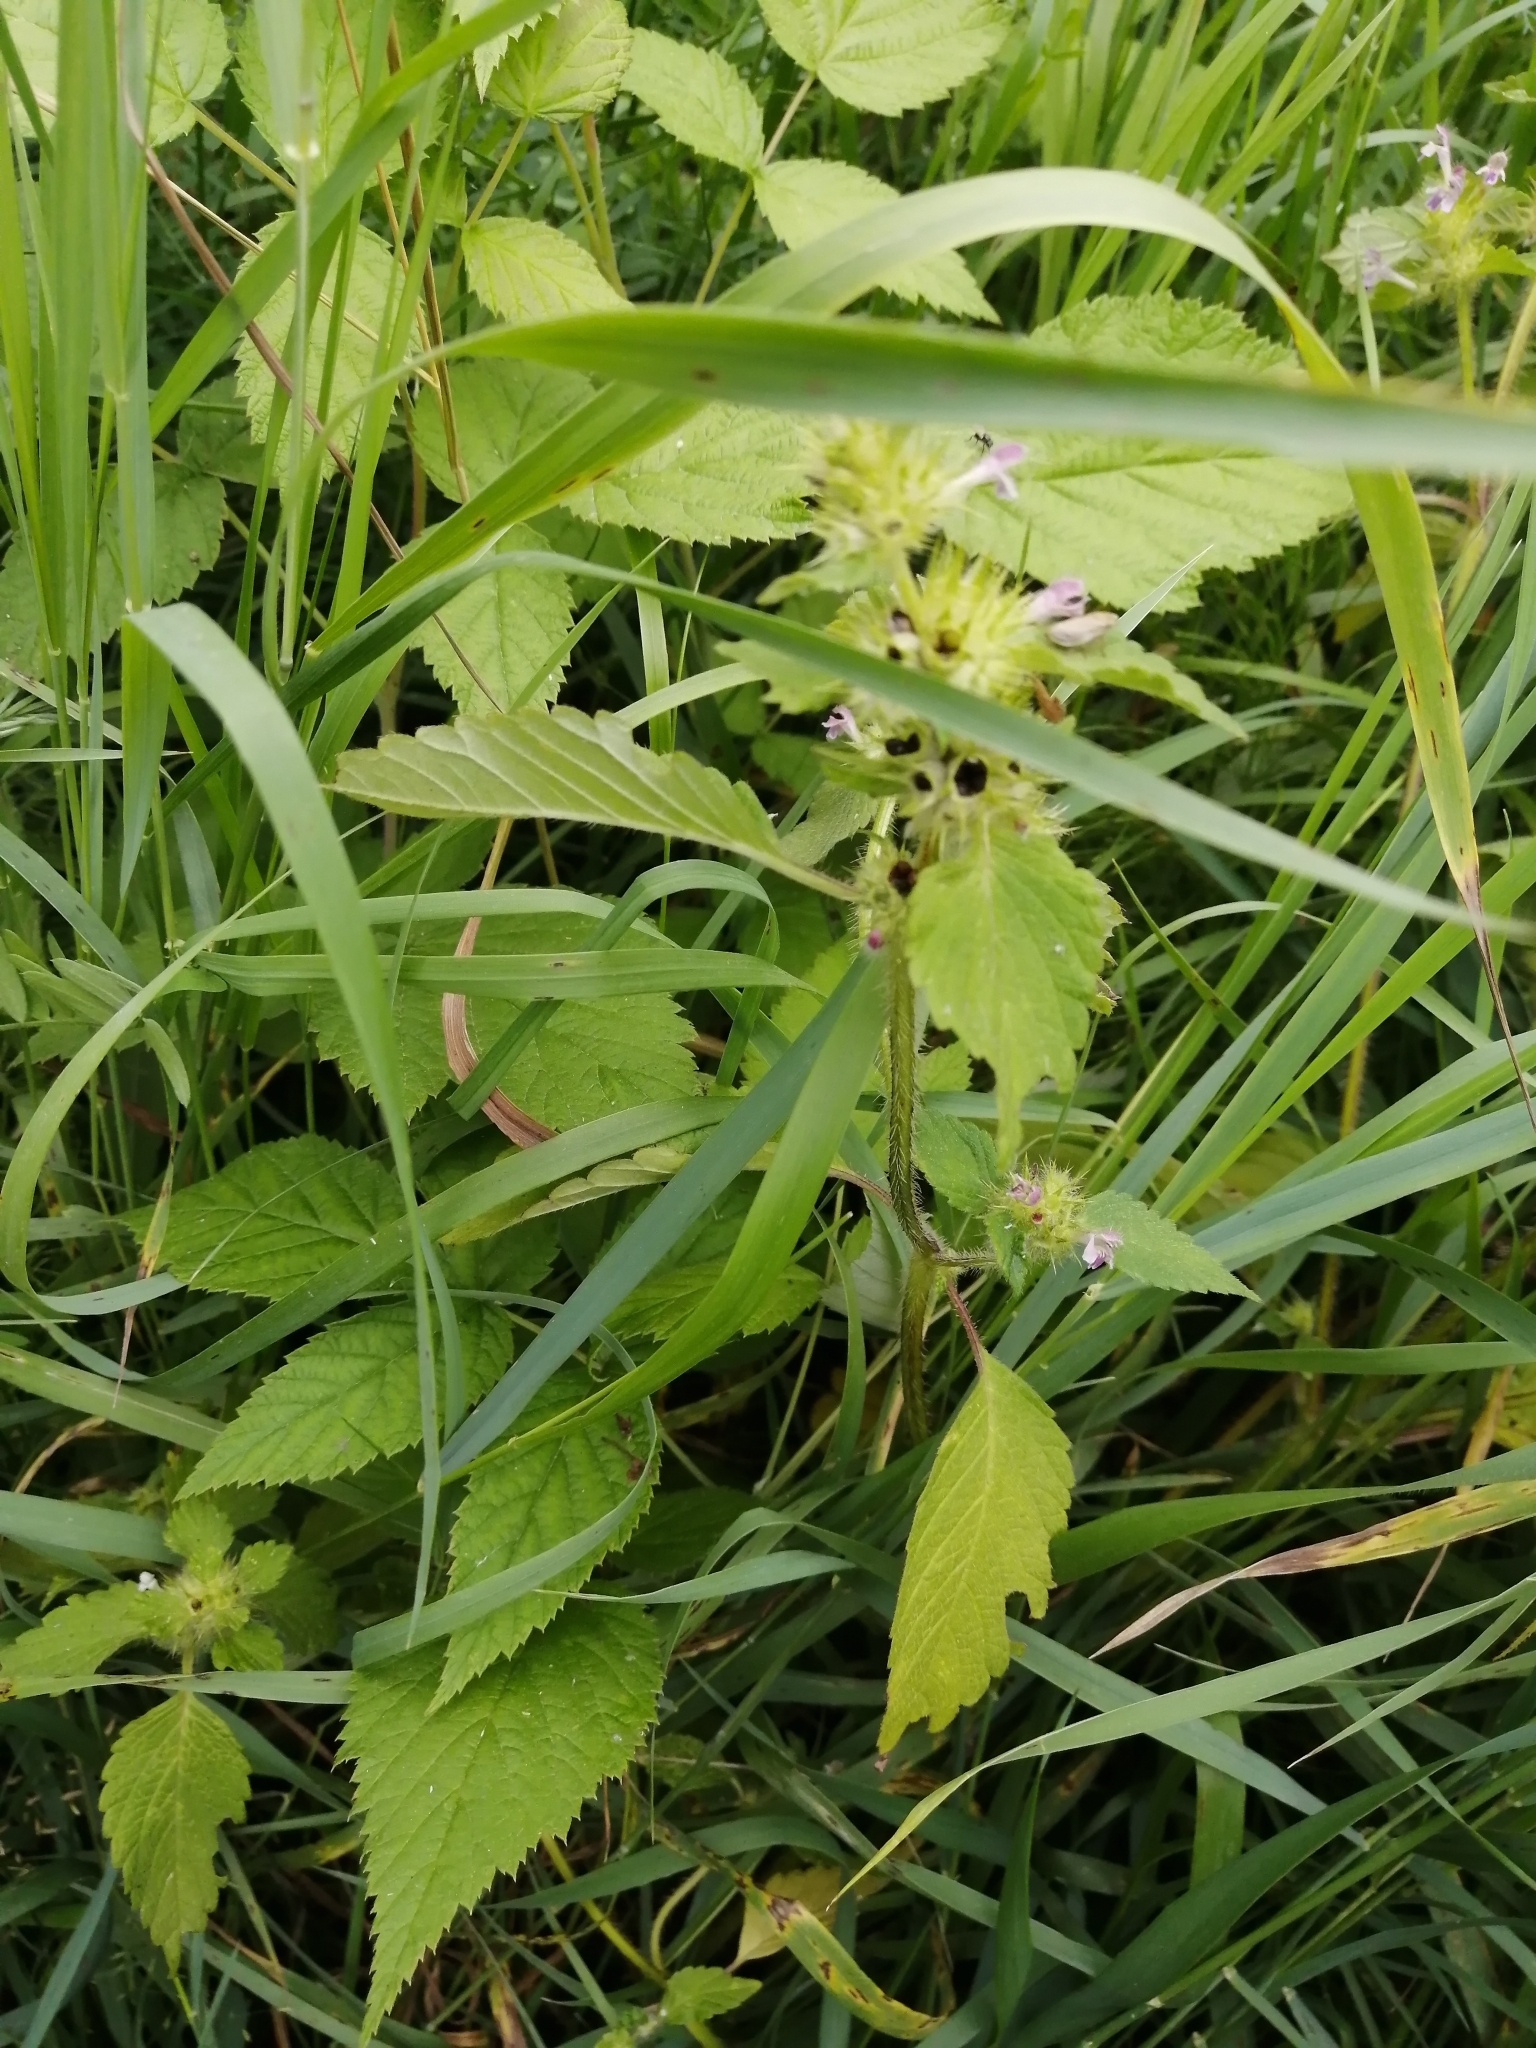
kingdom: Plantae
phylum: Tracheophyta
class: Magnoliopsida
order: Lamiales
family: Lamiaceae
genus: Galeopsis
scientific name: Galeopsis bifida
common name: Bifid hemp-nettle
